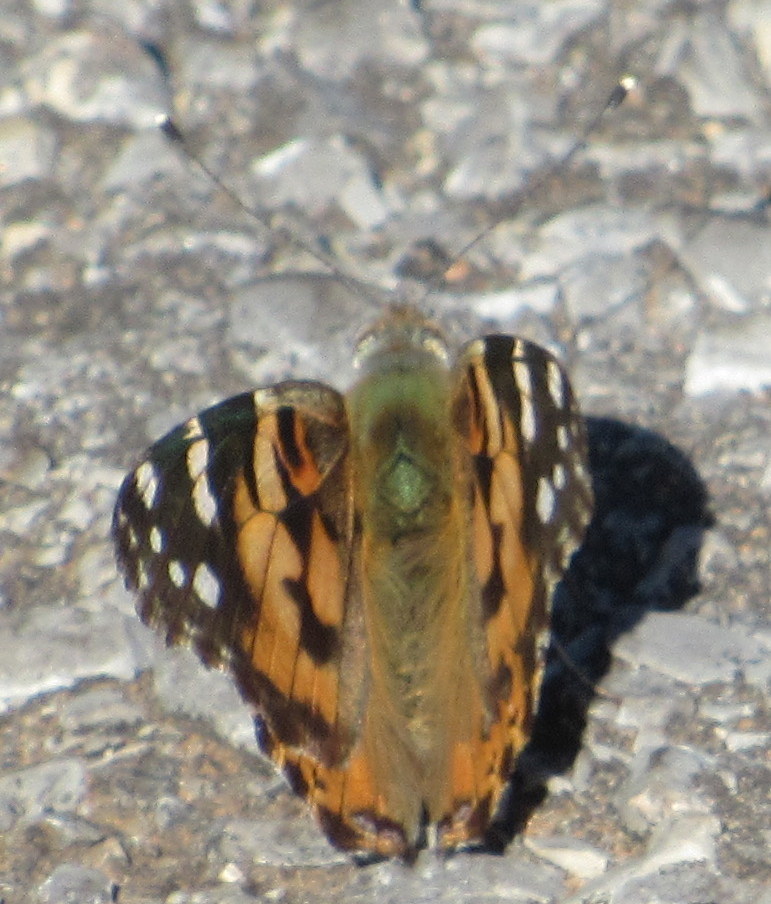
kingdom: Animalia
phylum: Arthropoda
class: Insecta
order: Lepidoptera
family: Nymphalidae
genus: Vanessa
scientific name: Vanessa cardui
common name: Painted lady
